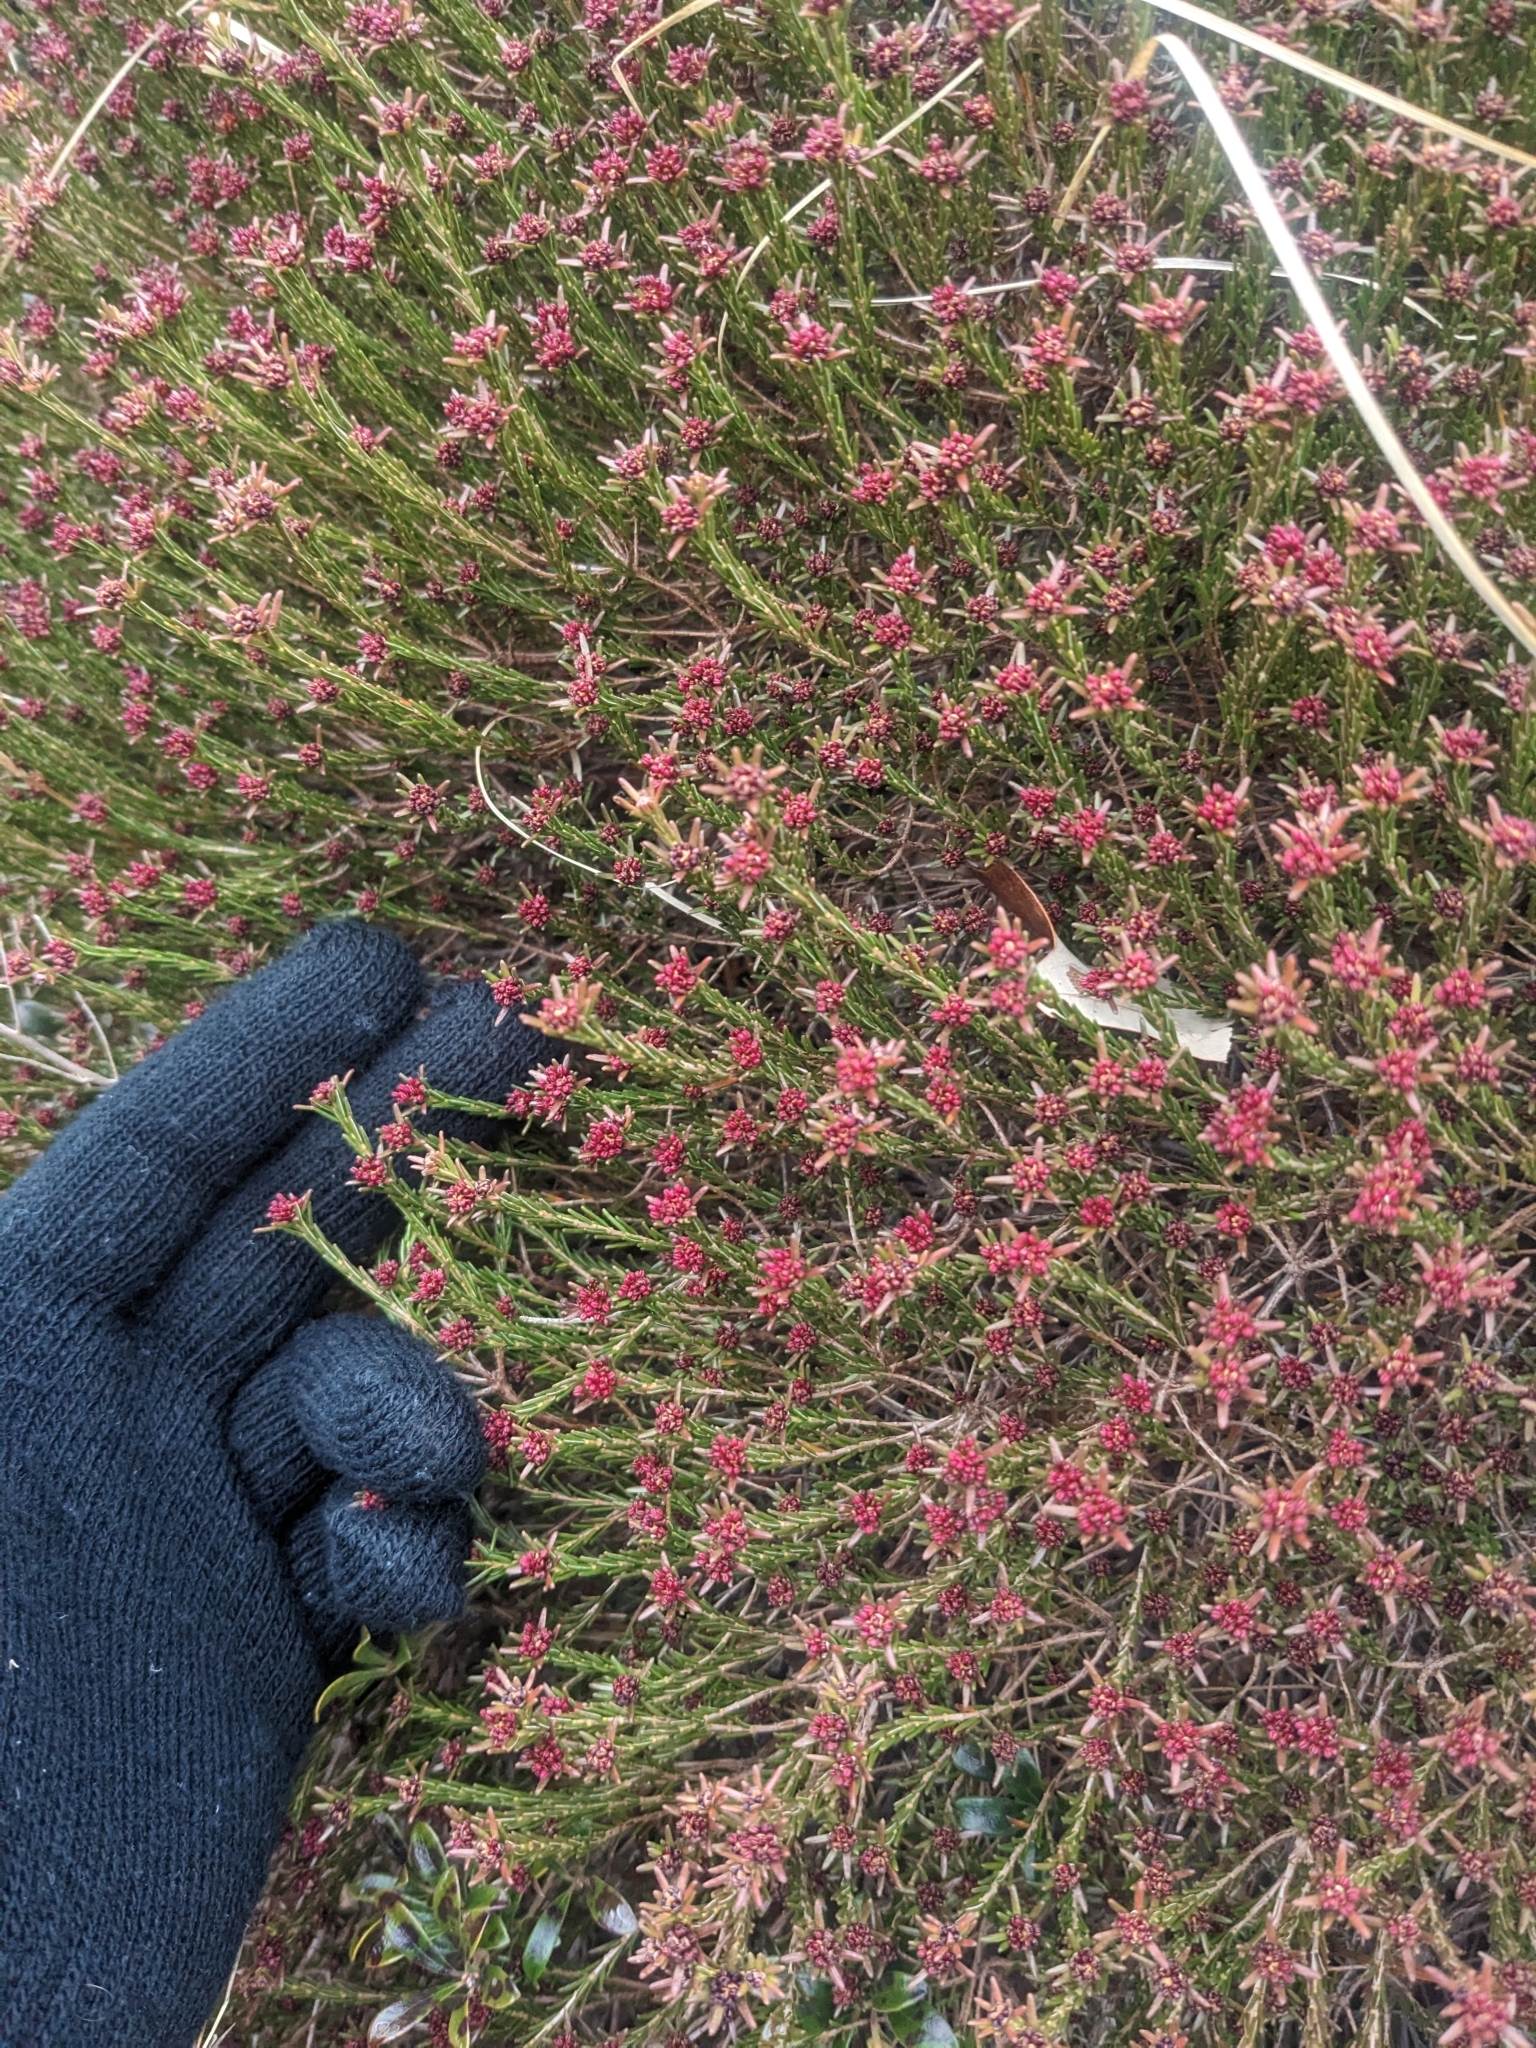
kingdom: Plantae
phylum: Tracheophyta
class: Magnoliopsida
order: Ericales
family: Ericaceae
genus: Corema
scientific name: Corema conradii
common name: Broom-crowberry
